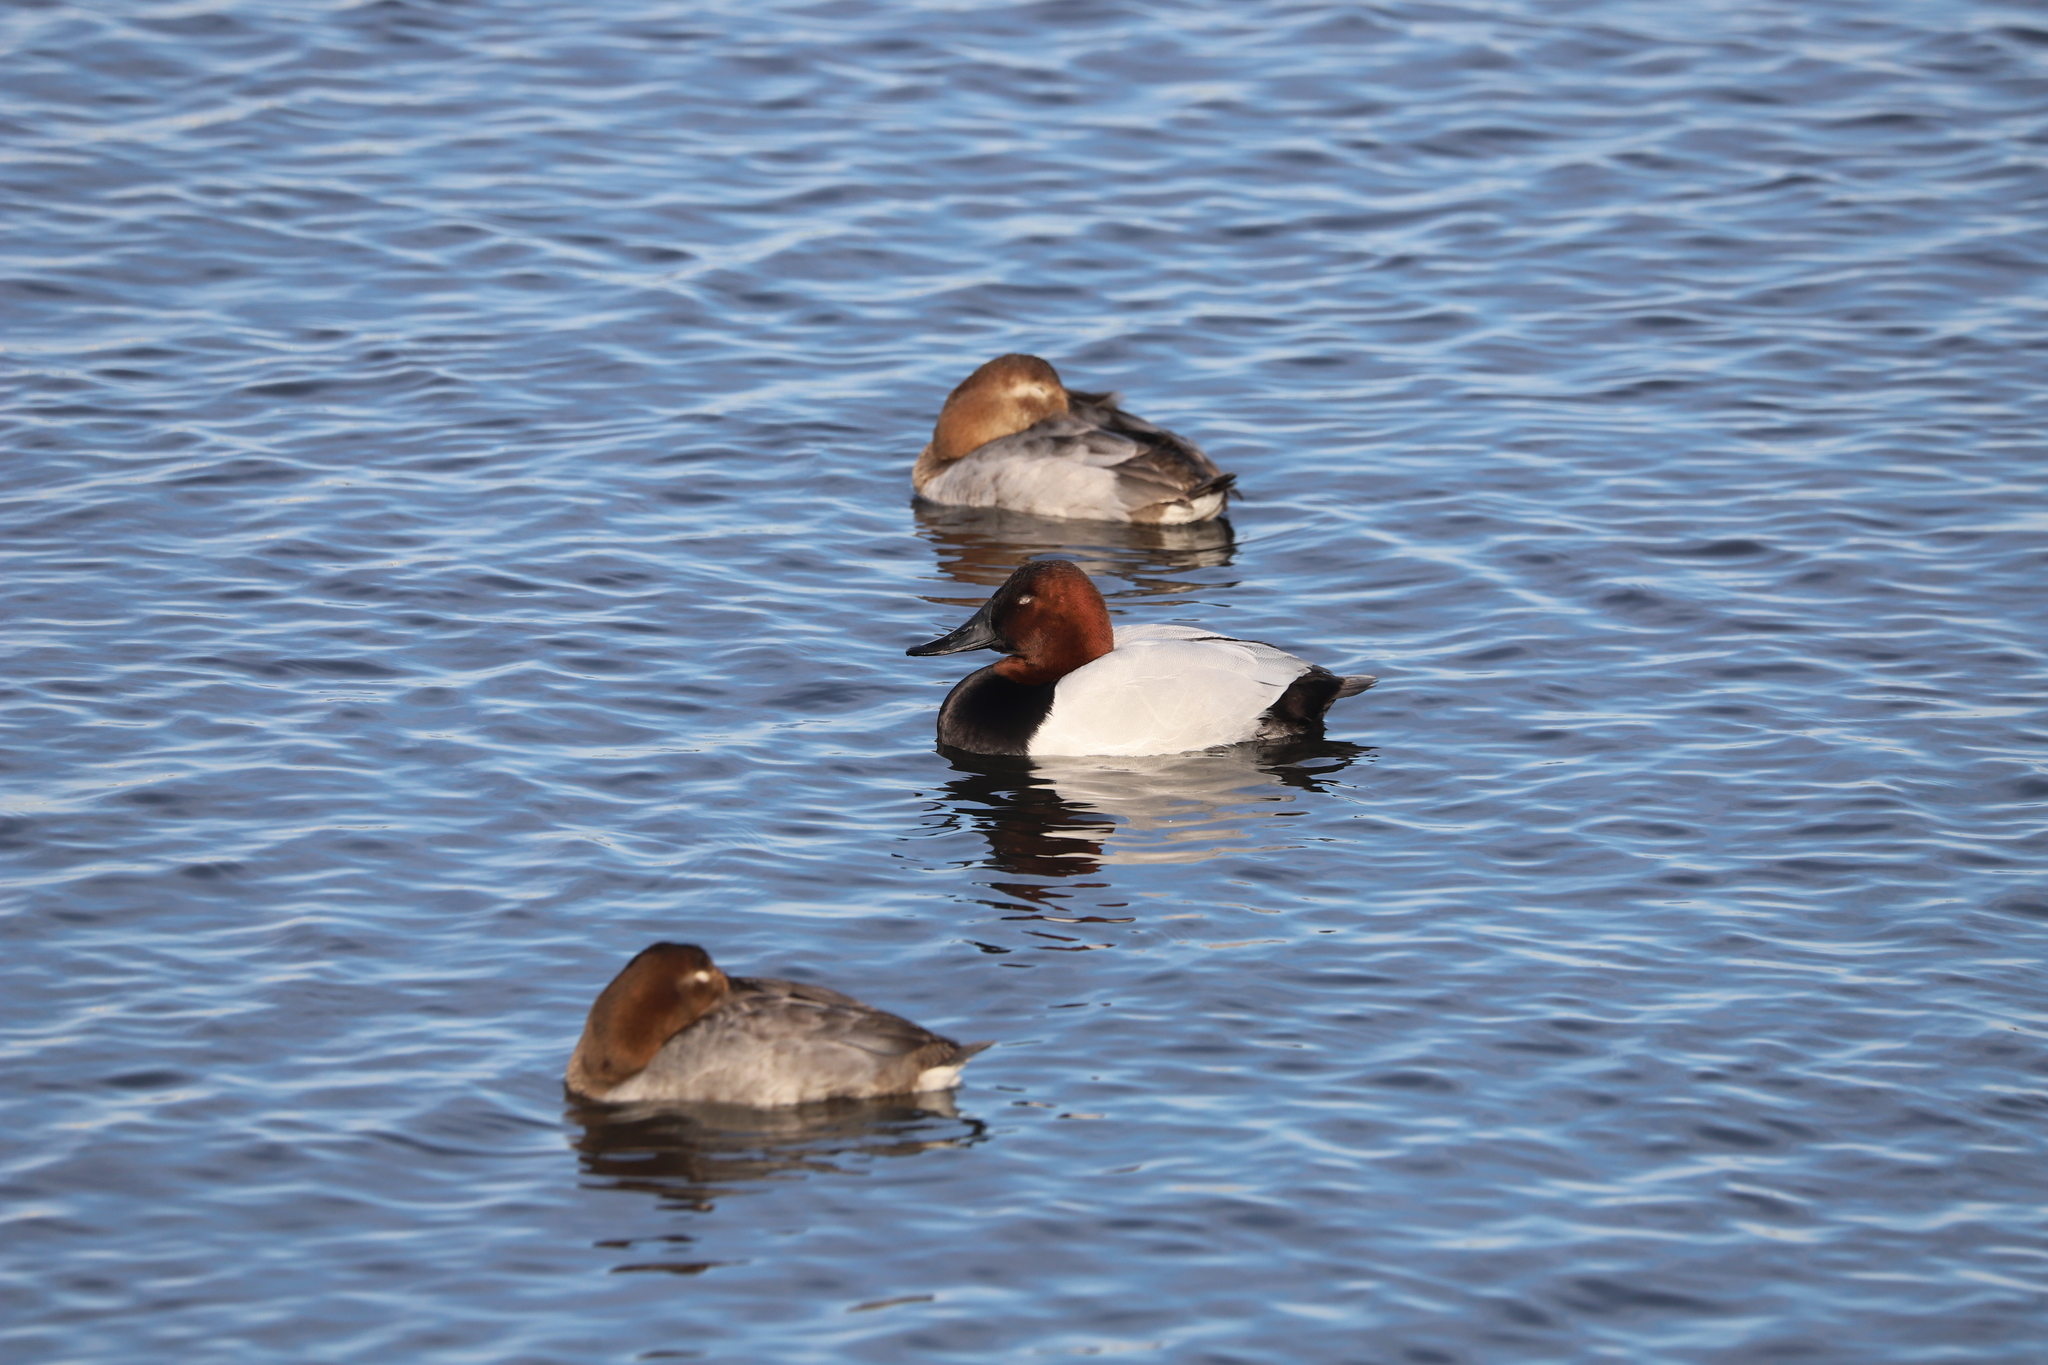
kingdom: Animalia
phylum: Chordata
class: Aves
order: Anseriformes
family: Anatidae
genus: Aythya
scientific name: Aythya valisineria
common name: Canvasback
